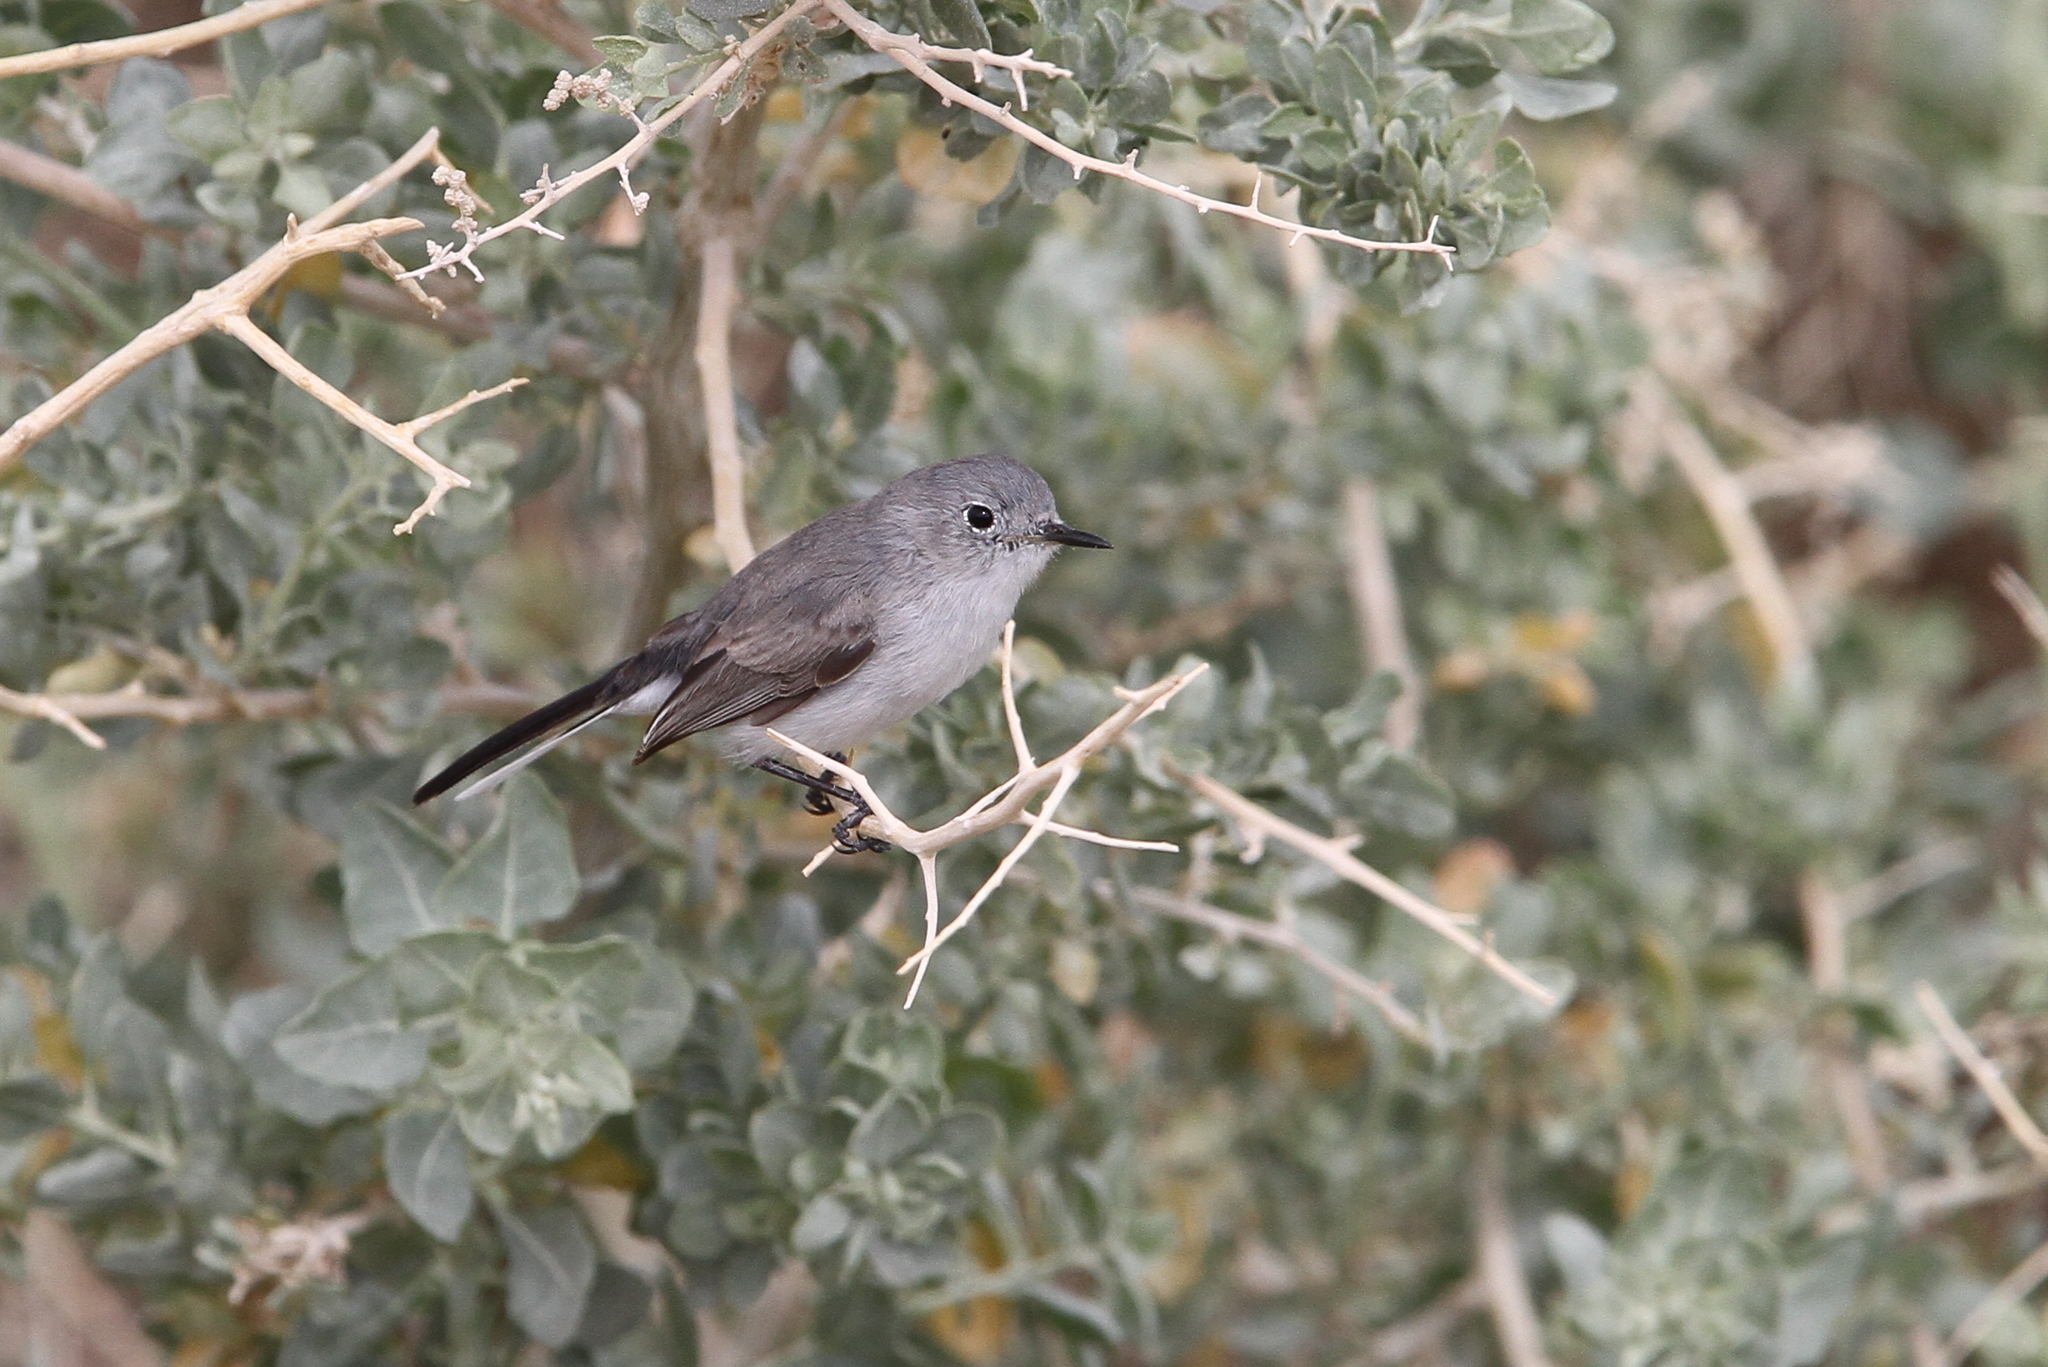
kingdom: Animalia
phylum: Chordata
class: Aves
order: Passeriformes
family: Polioptilidae
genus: Polioptila
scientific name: Polioptila melanura
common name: Black-tailed gnatcatcher
